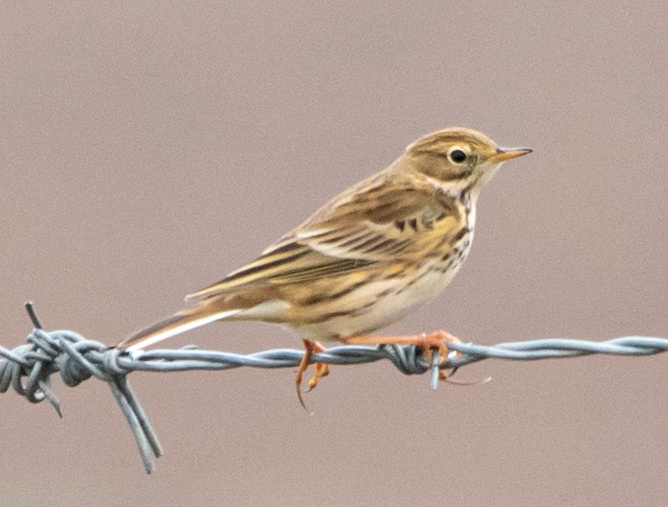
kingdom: Animalia
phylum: Chordata
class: Aves
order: Passeriformes
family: Motacillidae
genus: Anthus
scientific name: Anthus pratensis
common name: Meadow pipit
